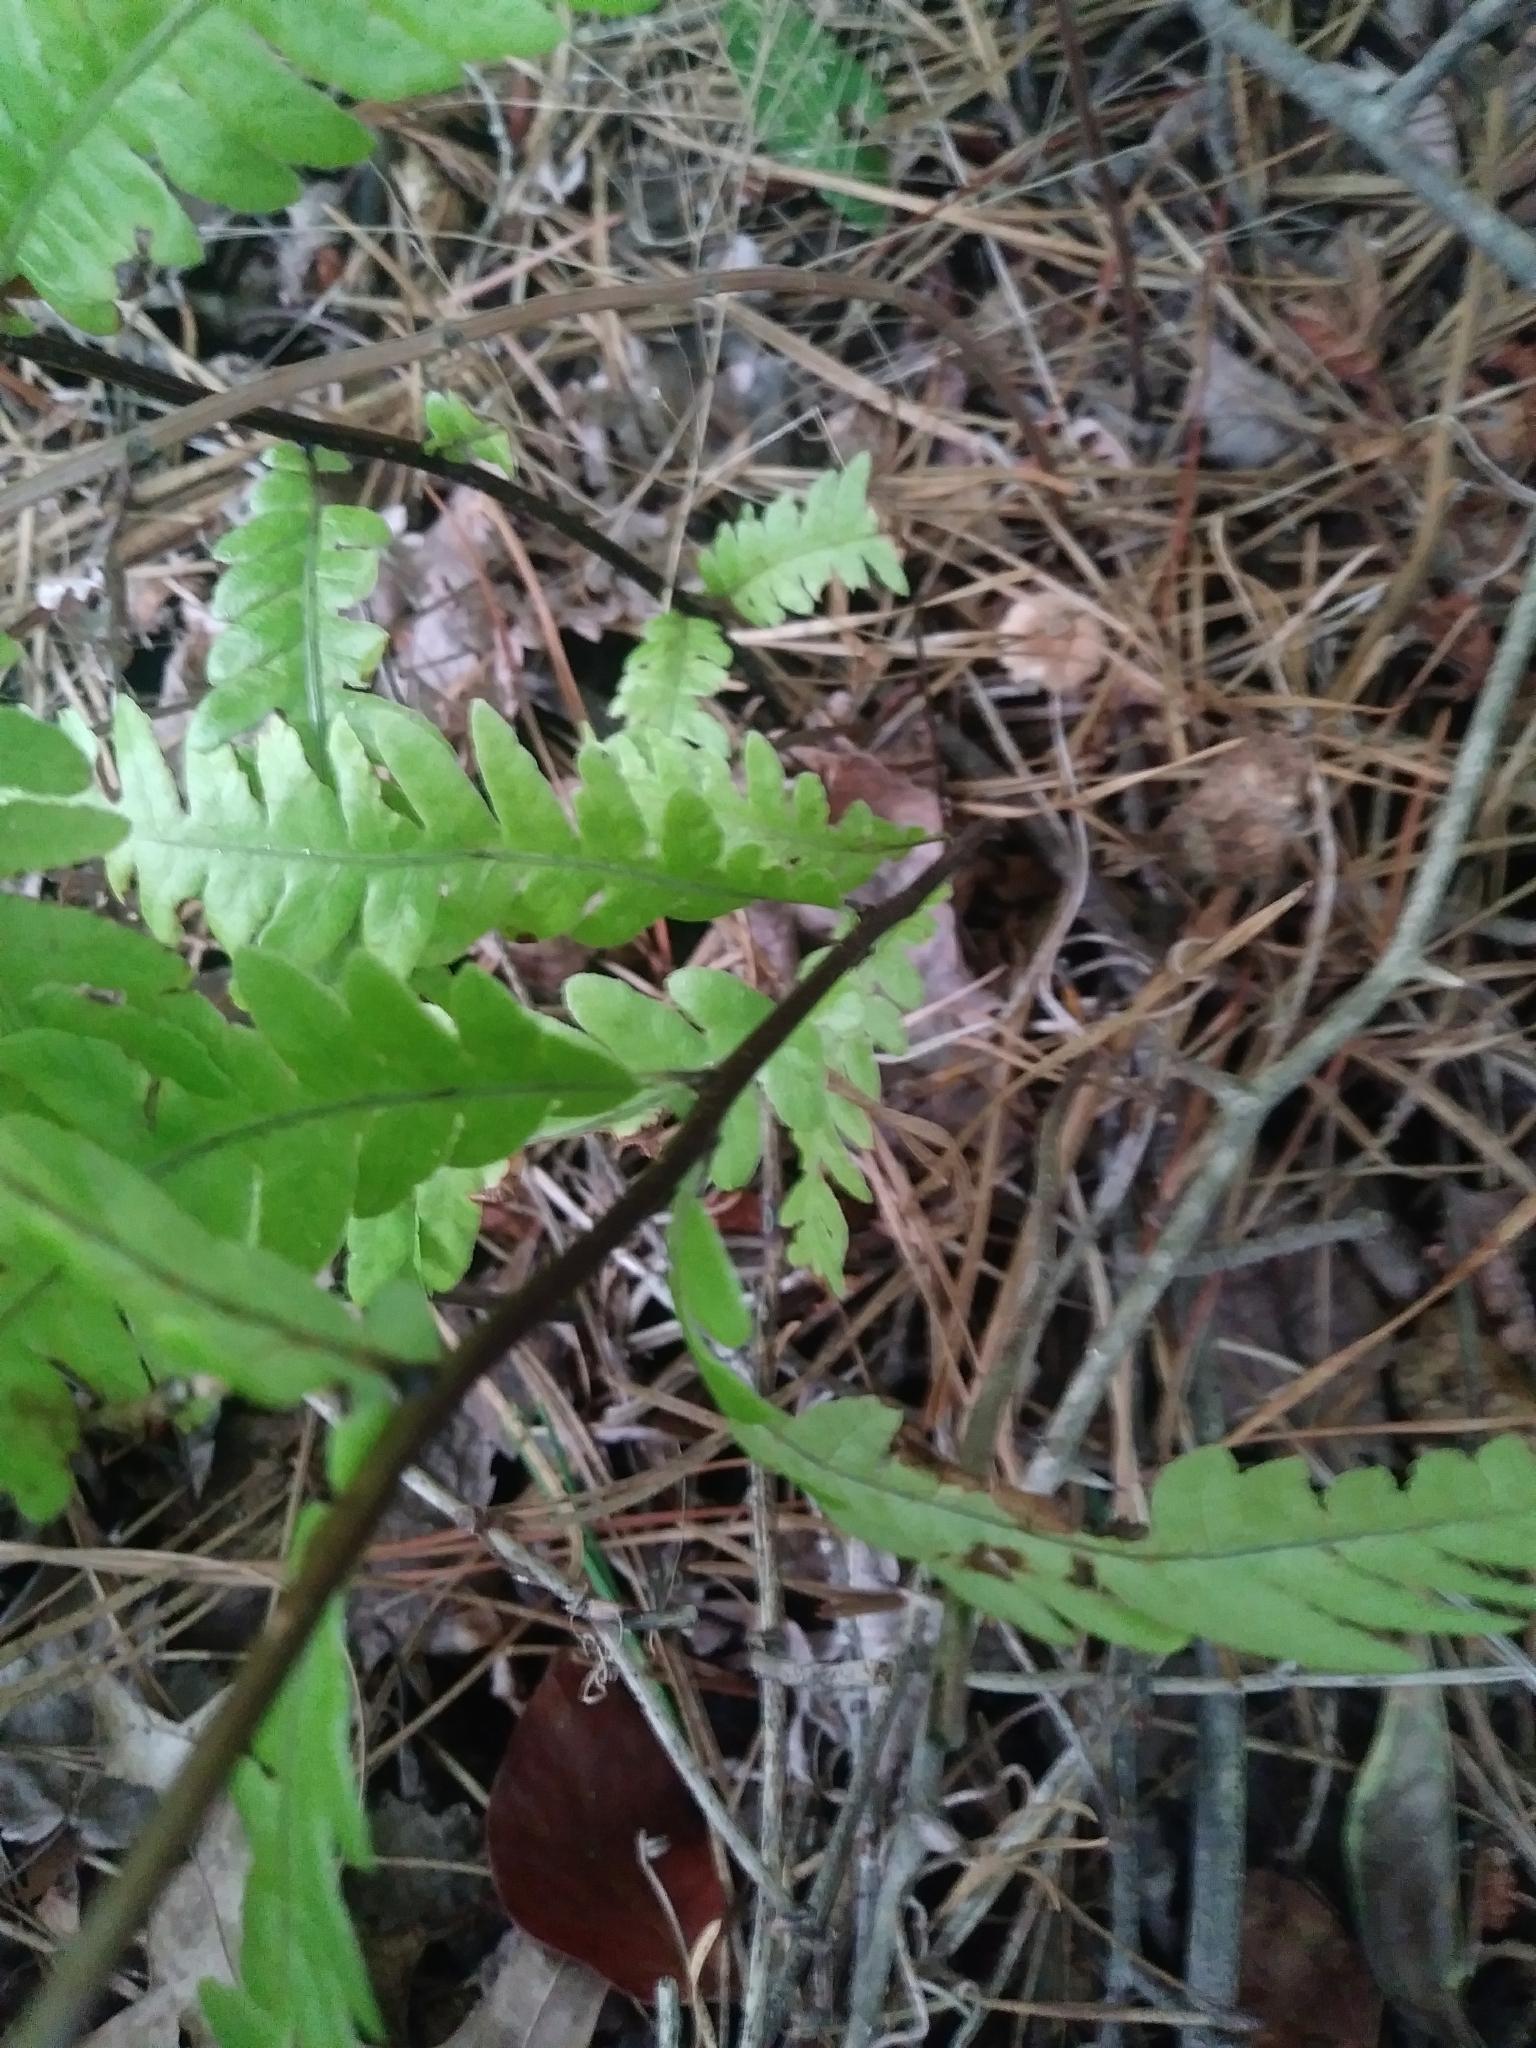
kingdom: Plantae
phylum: Tracheophyta
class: Polypodiopsida
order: Polypodiales
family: Blechnaceae
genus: Anchistea
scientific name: Anchistea virginica
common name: Virginia chain fern
